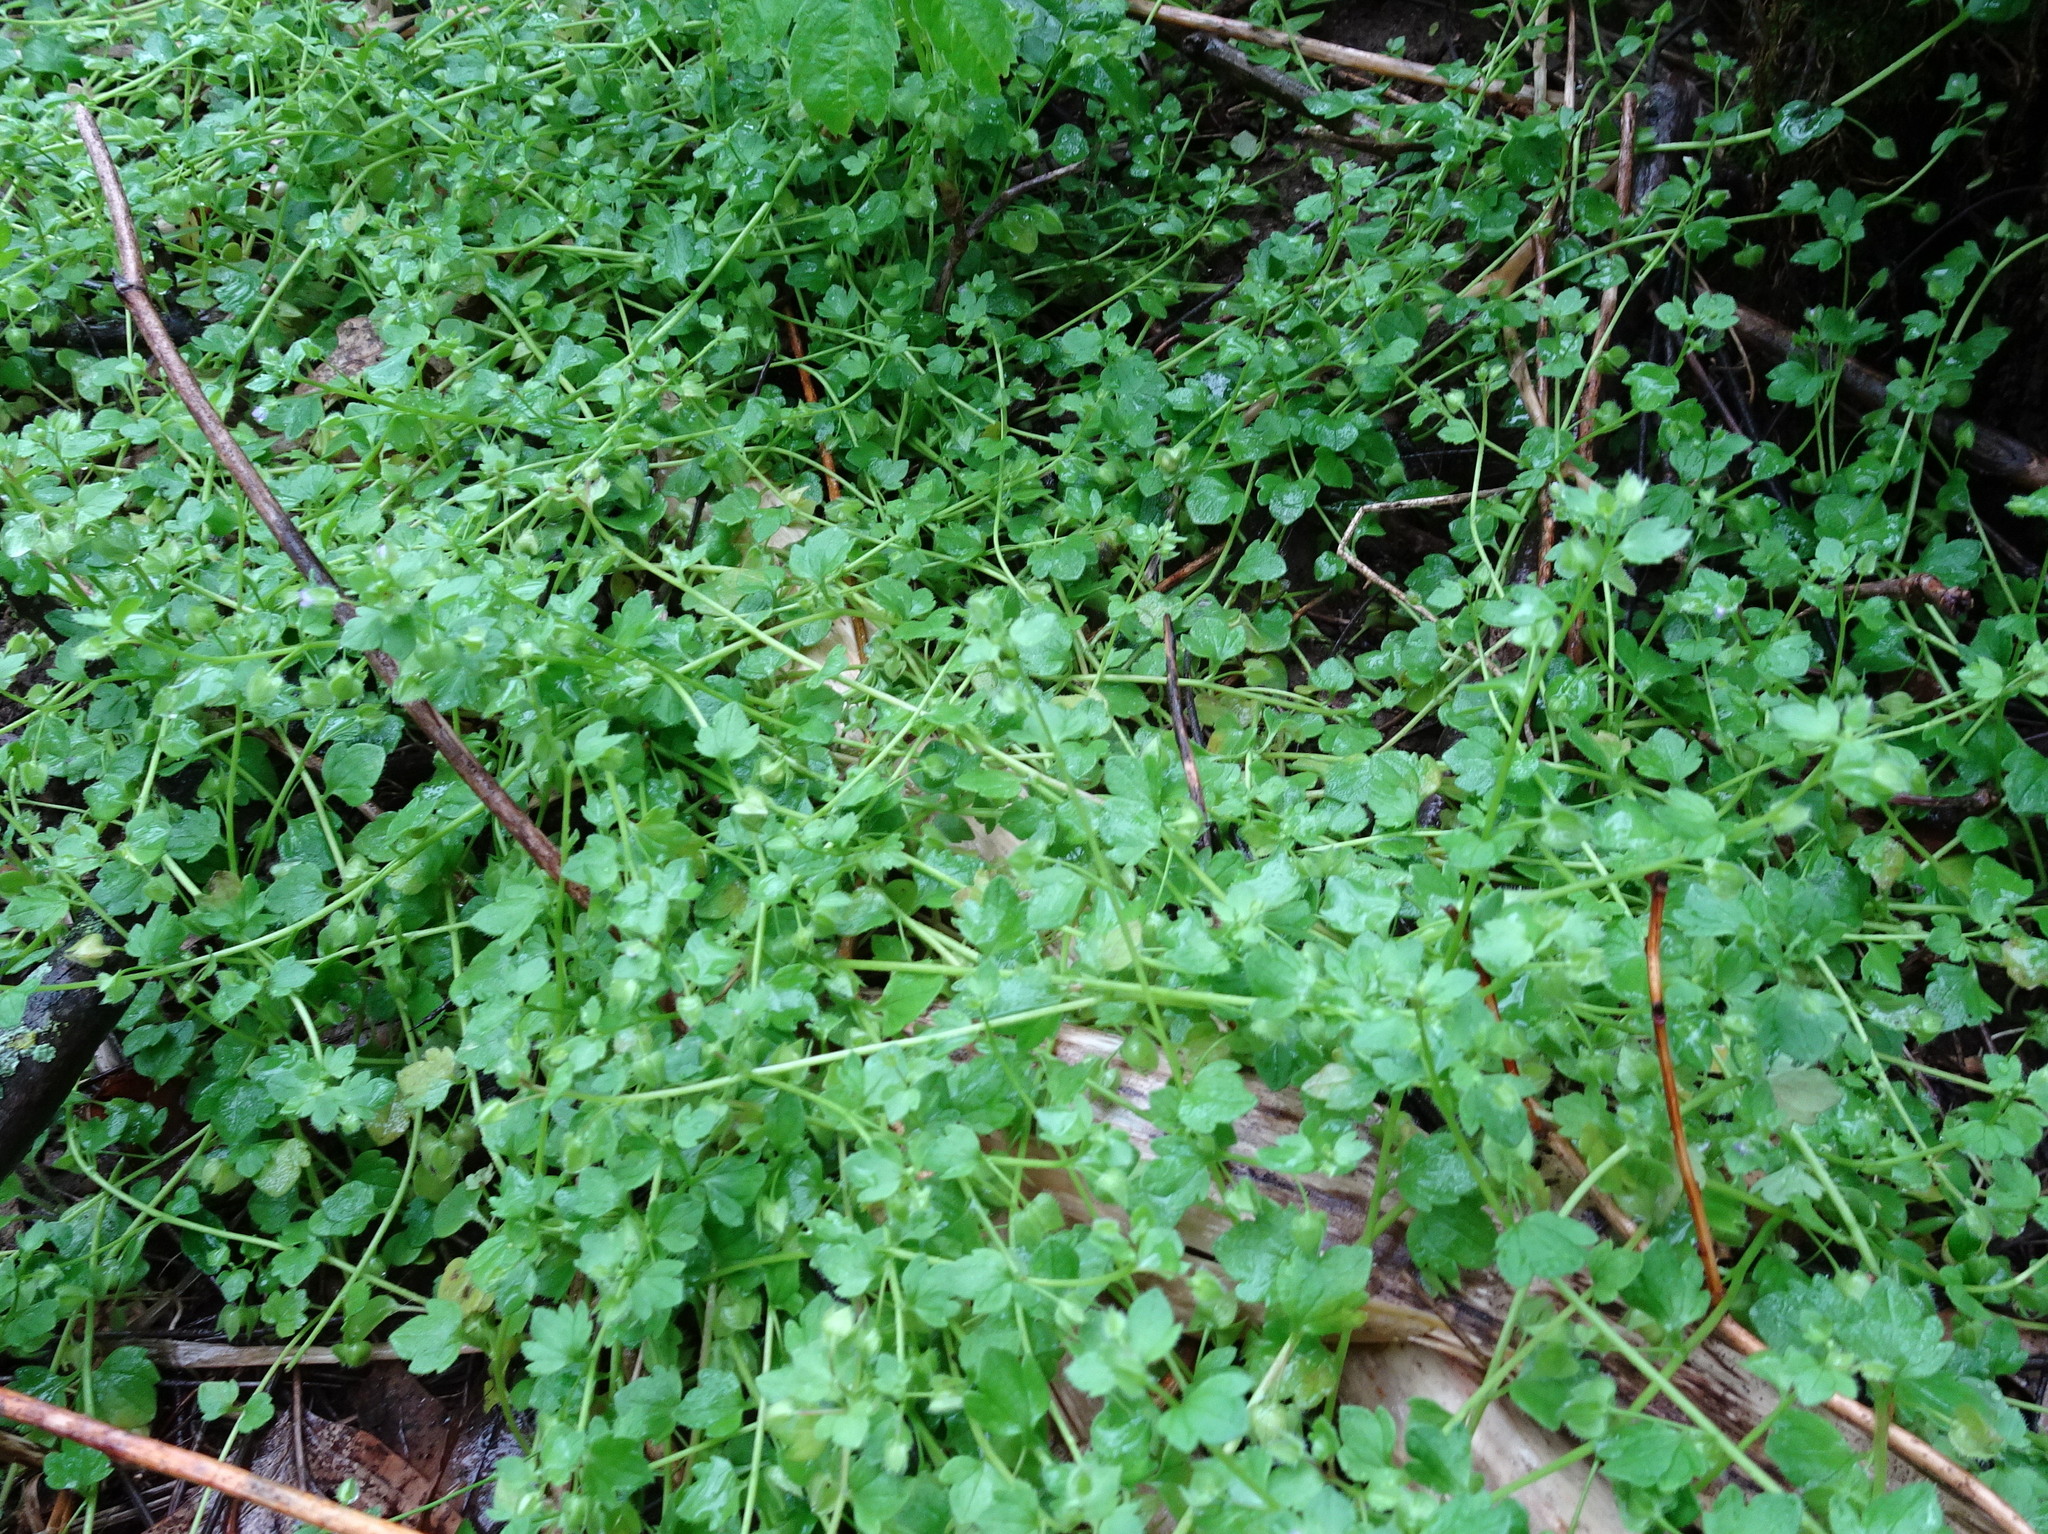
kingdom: Plantae
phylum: Tracheophyta
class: Magnoliopsida
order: Lamiales
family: Plantaginaceae
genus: Veronica
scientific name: Veronica hederifolia
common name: Ivy-leaved speedwell
